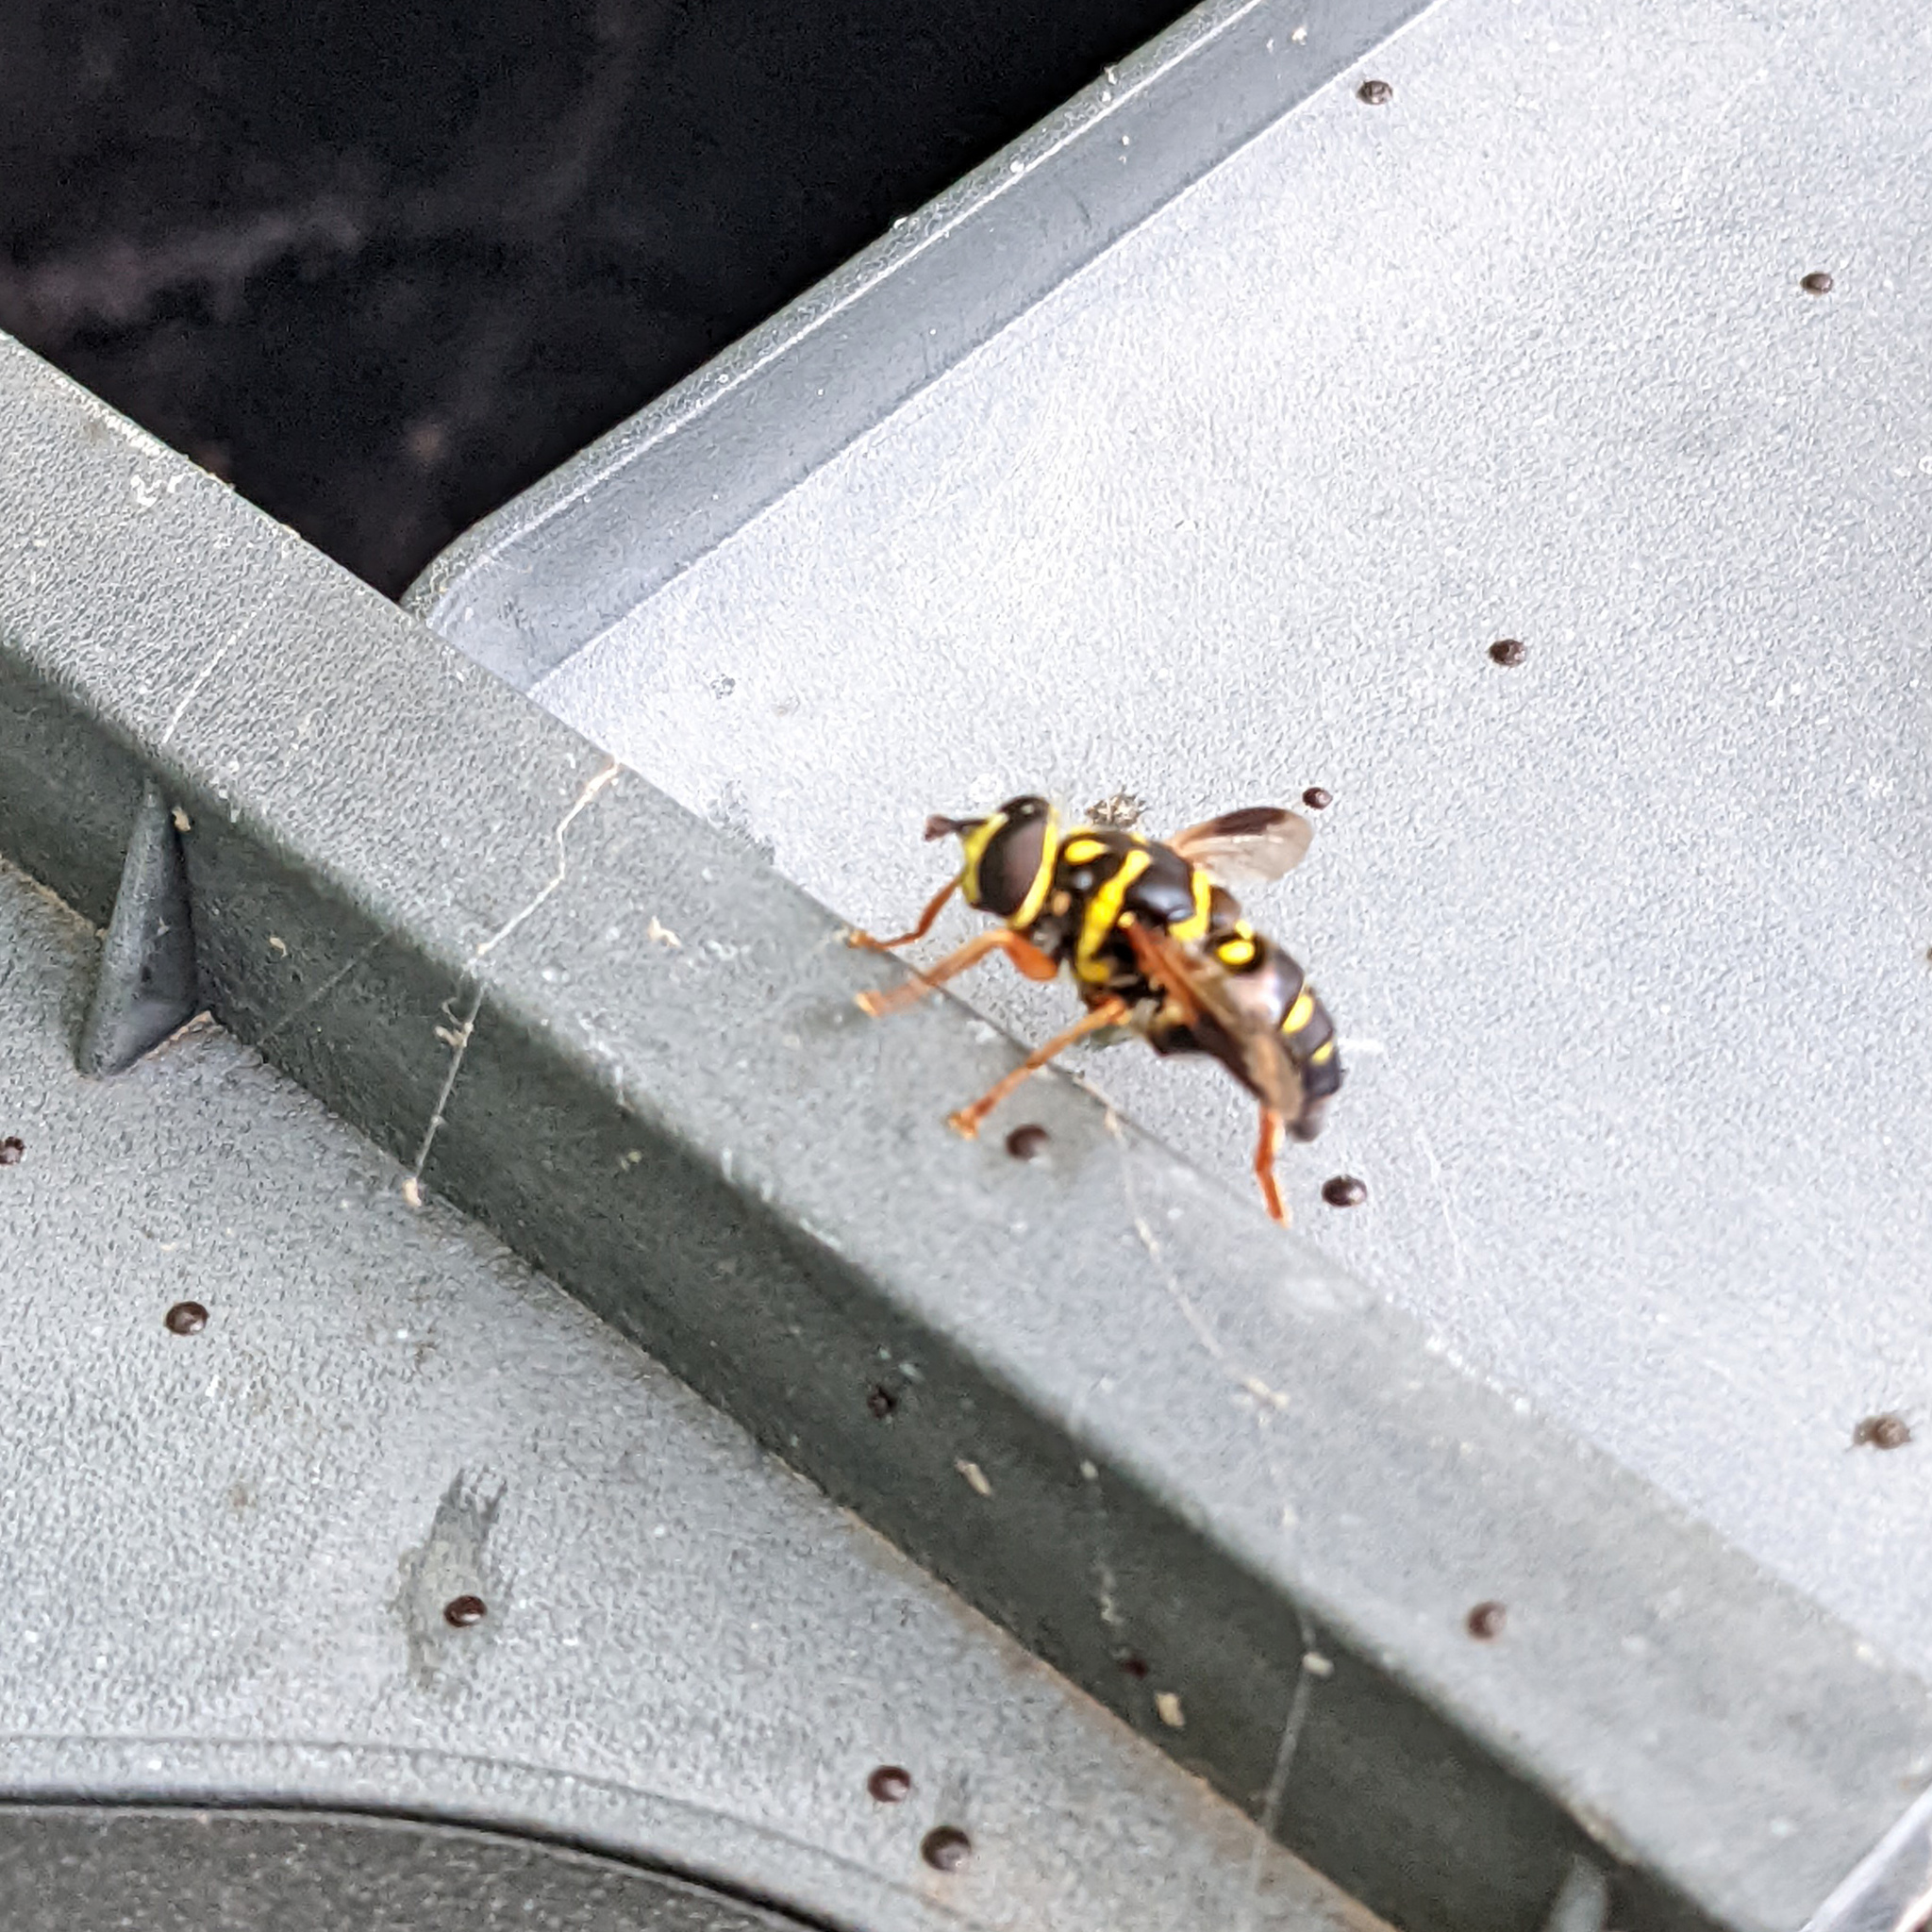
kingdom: Animalia
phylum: Arthropoda
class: Insecta
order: Diptera
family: Syrphidae
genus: Meromacrus
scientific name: Meromacrus acutus
